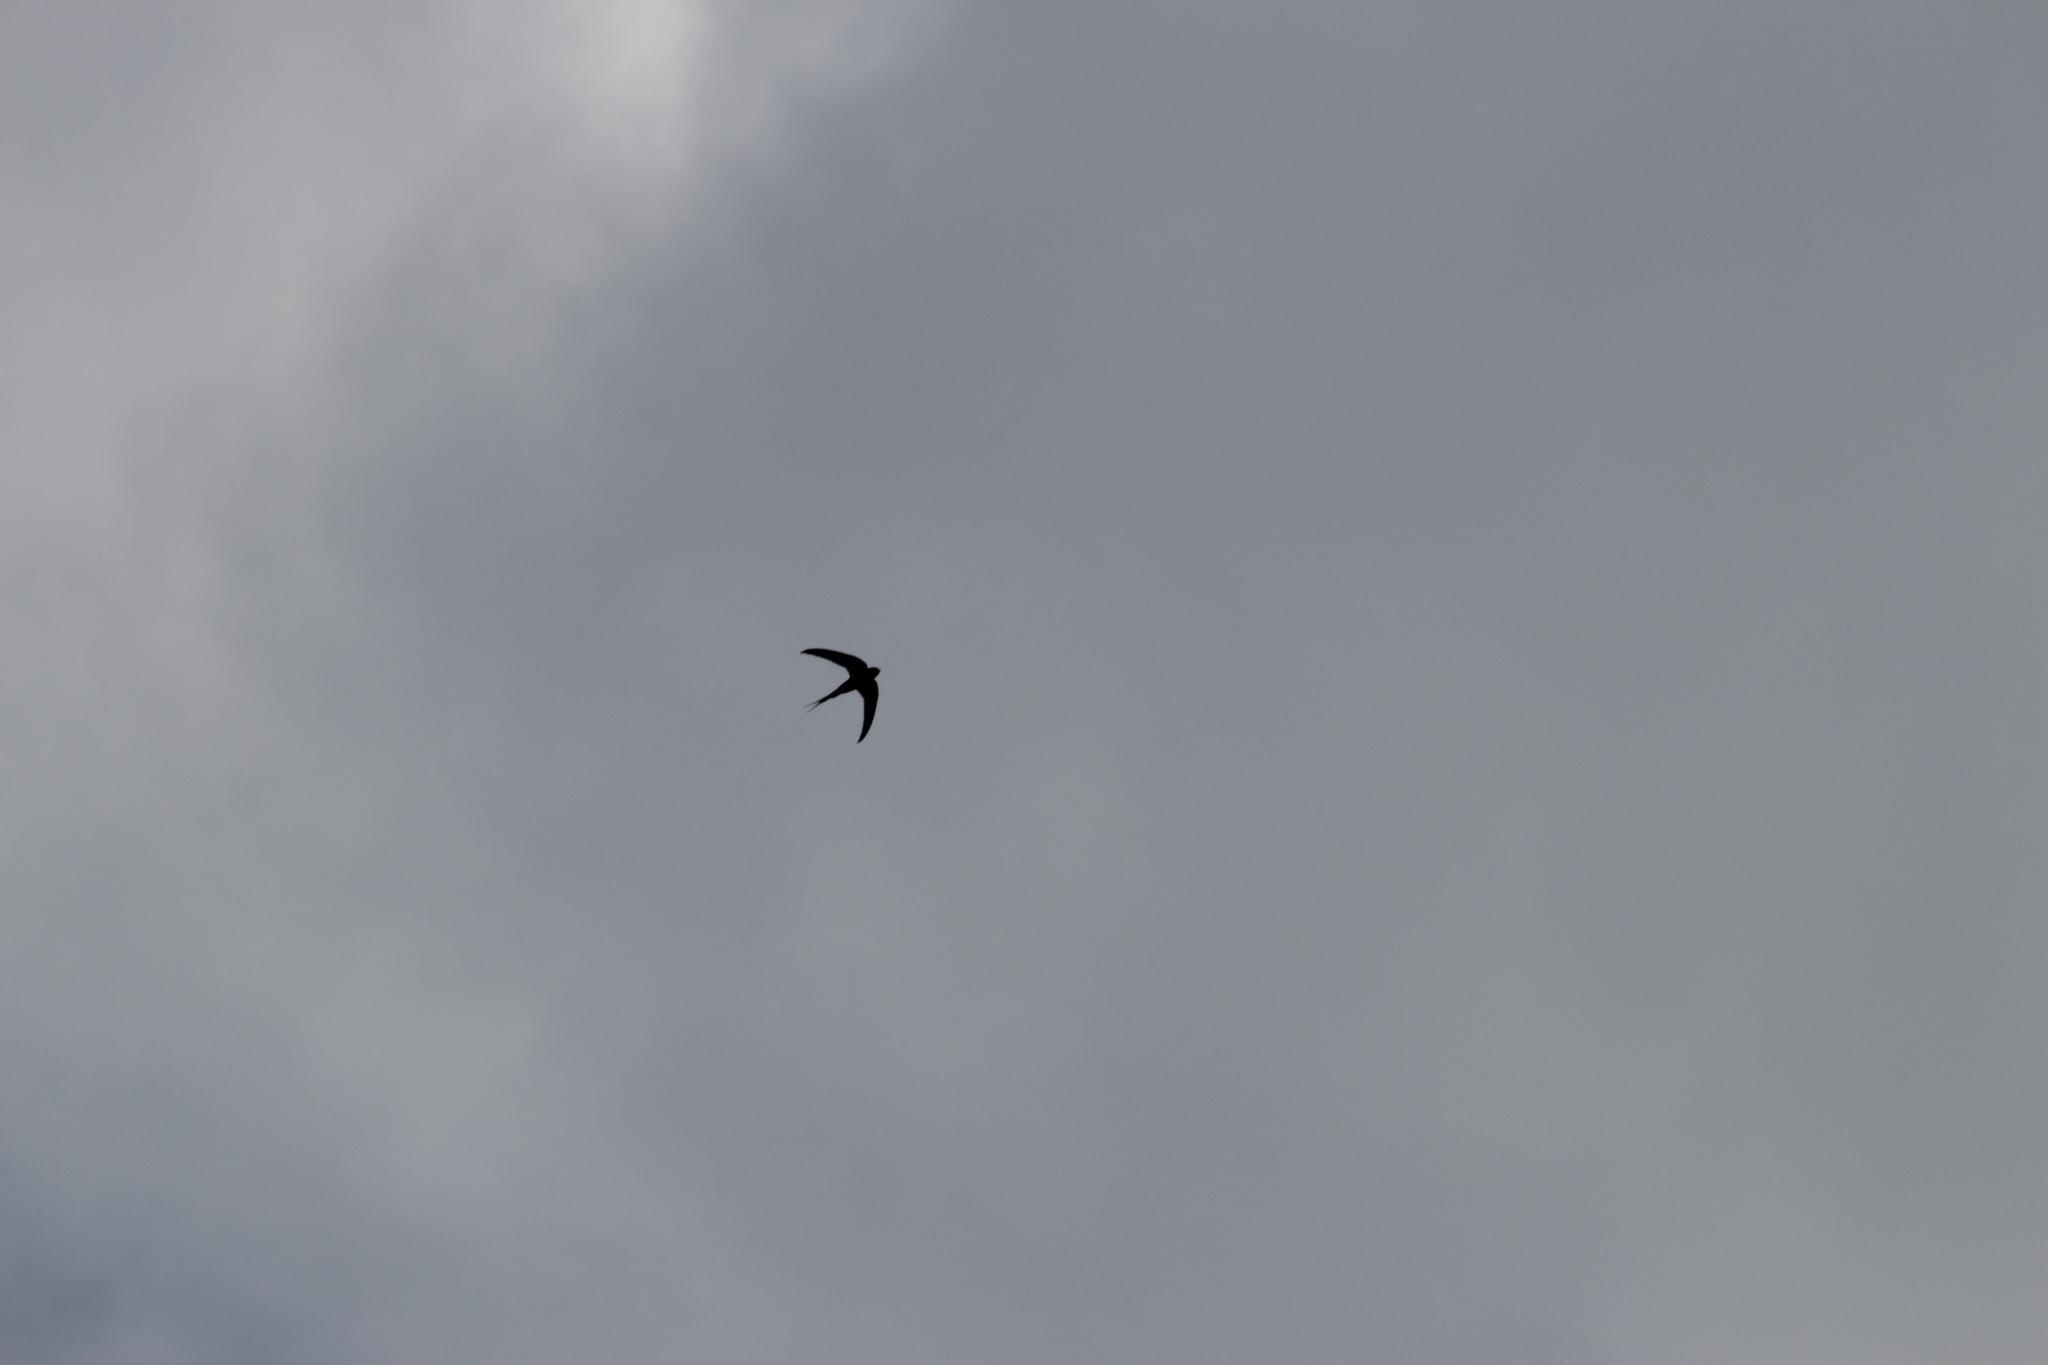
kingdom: Animalia
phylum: Chordata
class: Aves
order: Apodiformes
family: Apodidae
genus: Cypsiurus
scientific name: Cypsiurus parvus
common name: African palm swift
